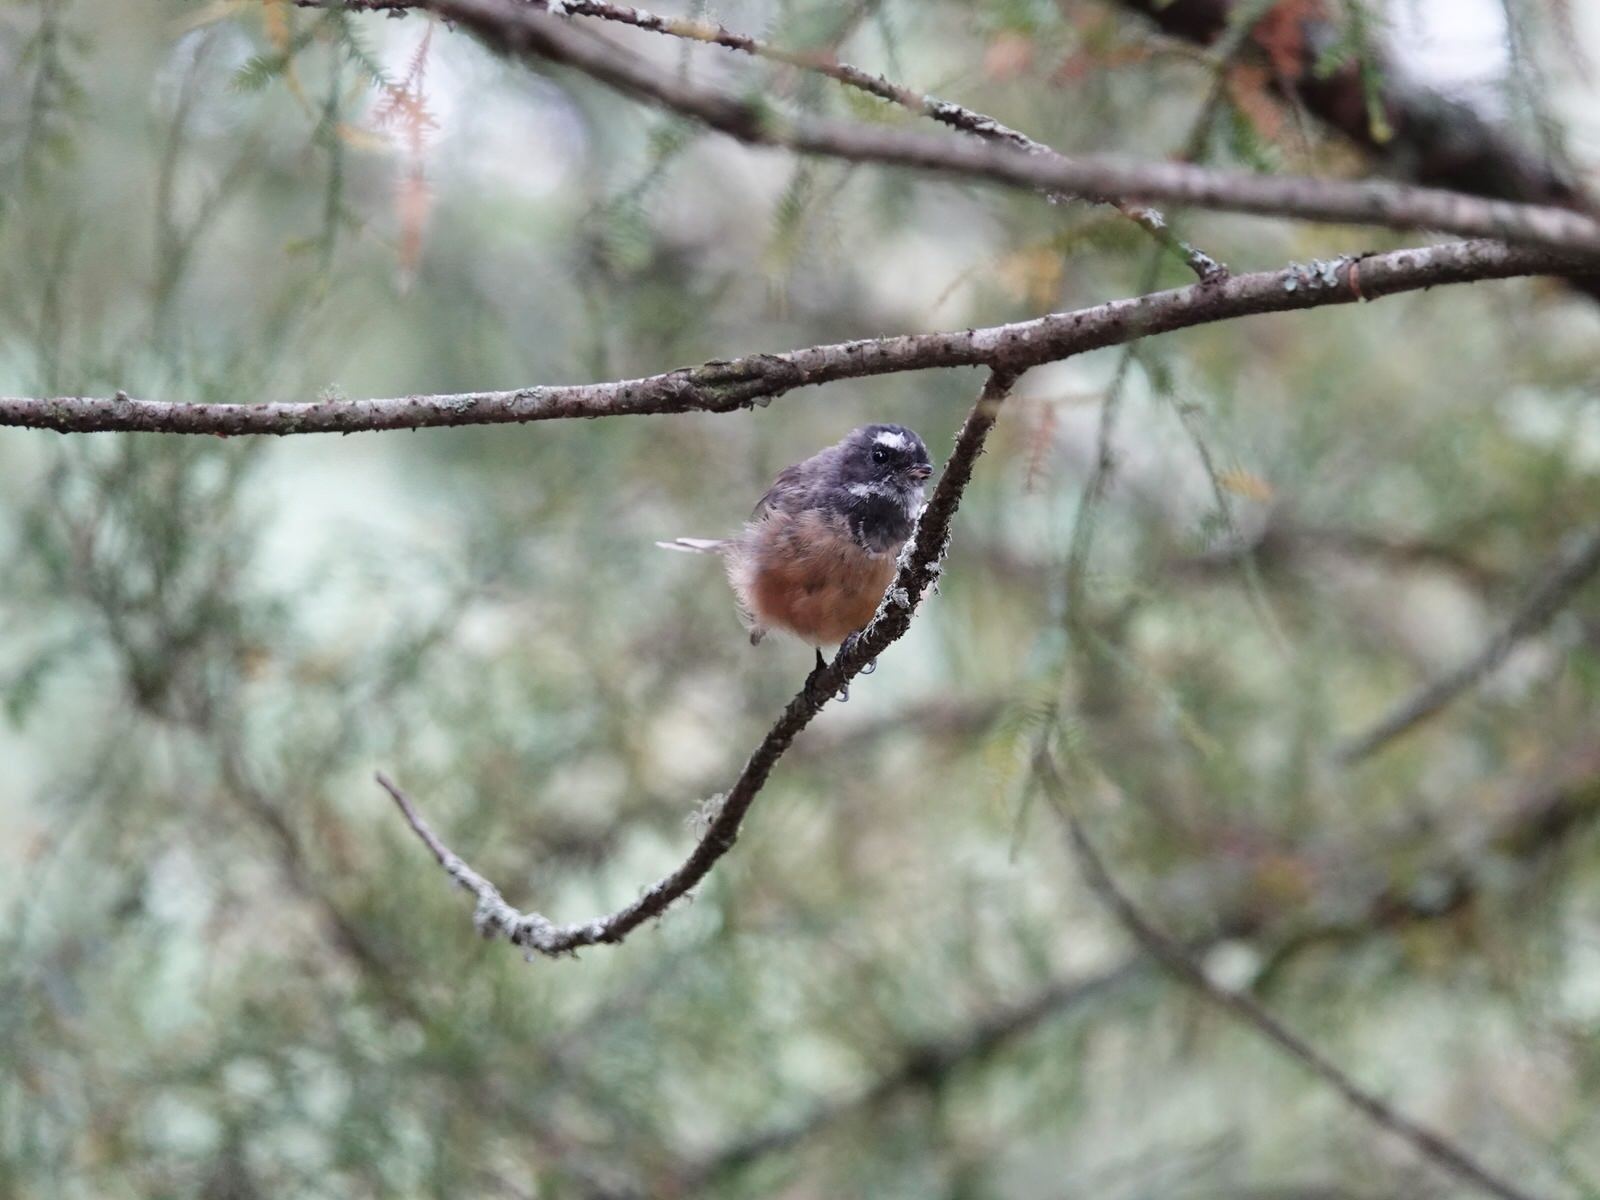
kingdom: Animalia
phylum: Chordata
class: Aves
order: Passeriformes
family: Rhipiduridae
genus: Rhipidura
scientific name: Rhipidura fuliginosa
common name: New zealand fantail
